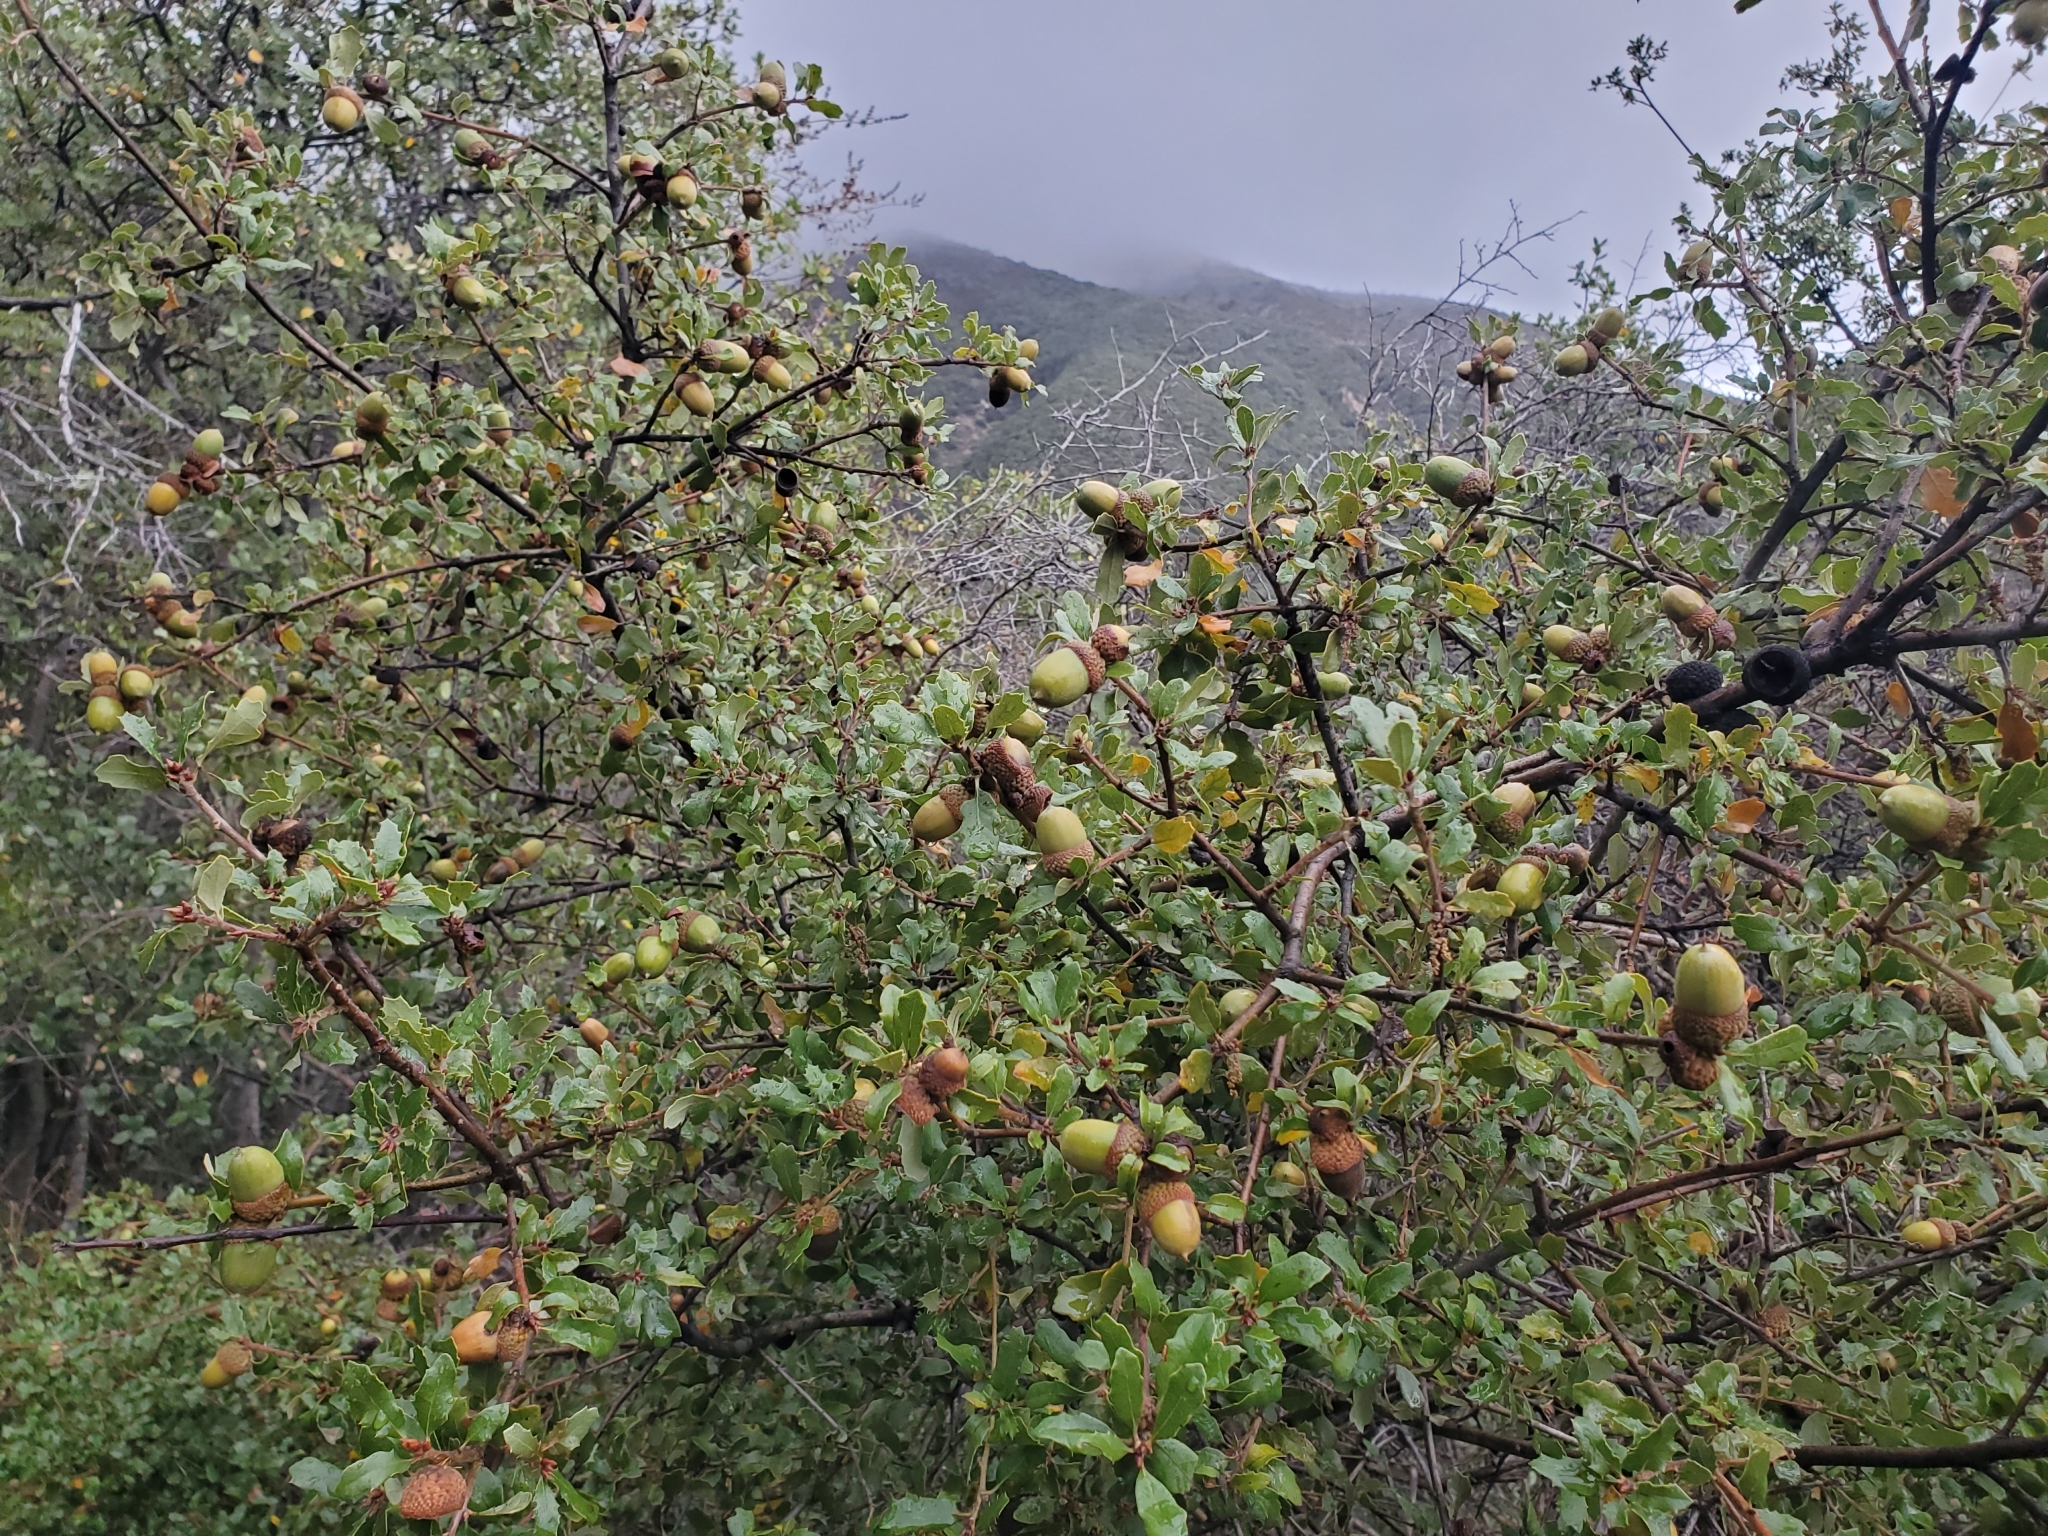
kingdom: Plantae
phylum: Tracheophyta
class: Magnoliopsida
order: Fagales
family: Fagaceae
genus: Quercus
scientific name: Quercus berberidifolia
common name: California scrub oak
